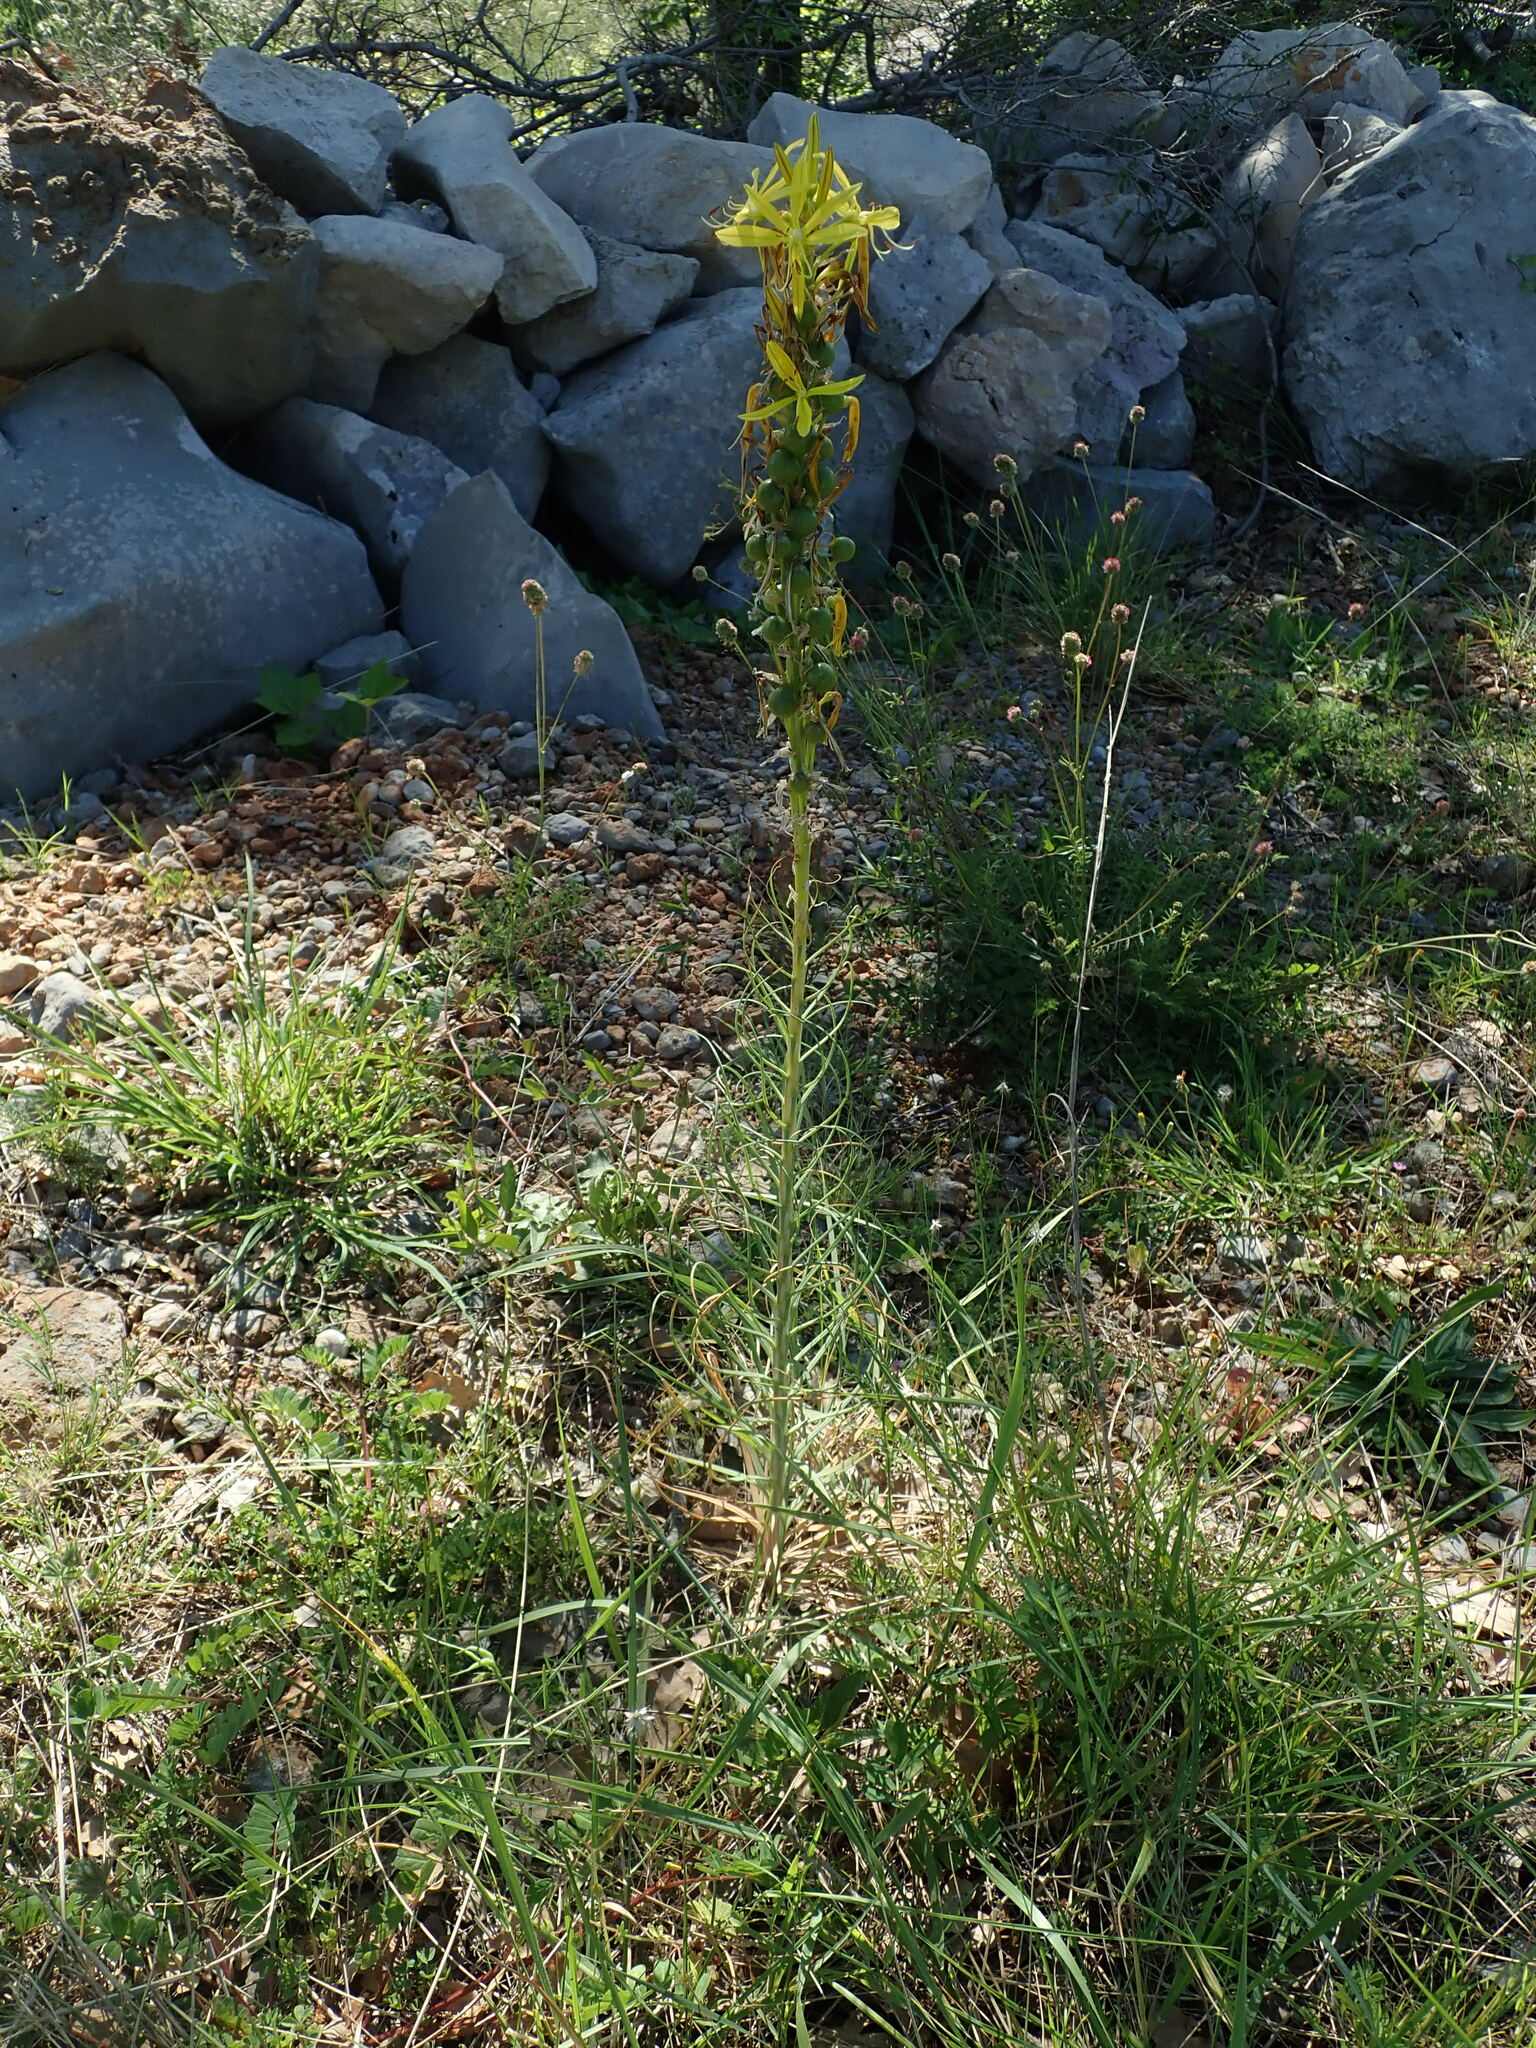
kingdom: Plantae
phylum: Tracheophyta
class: Liliopsida
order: Asparagales
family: Asphodelaceae
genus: Asphodeline
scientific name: Asphodeline lutea
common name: Yellow asphodel
